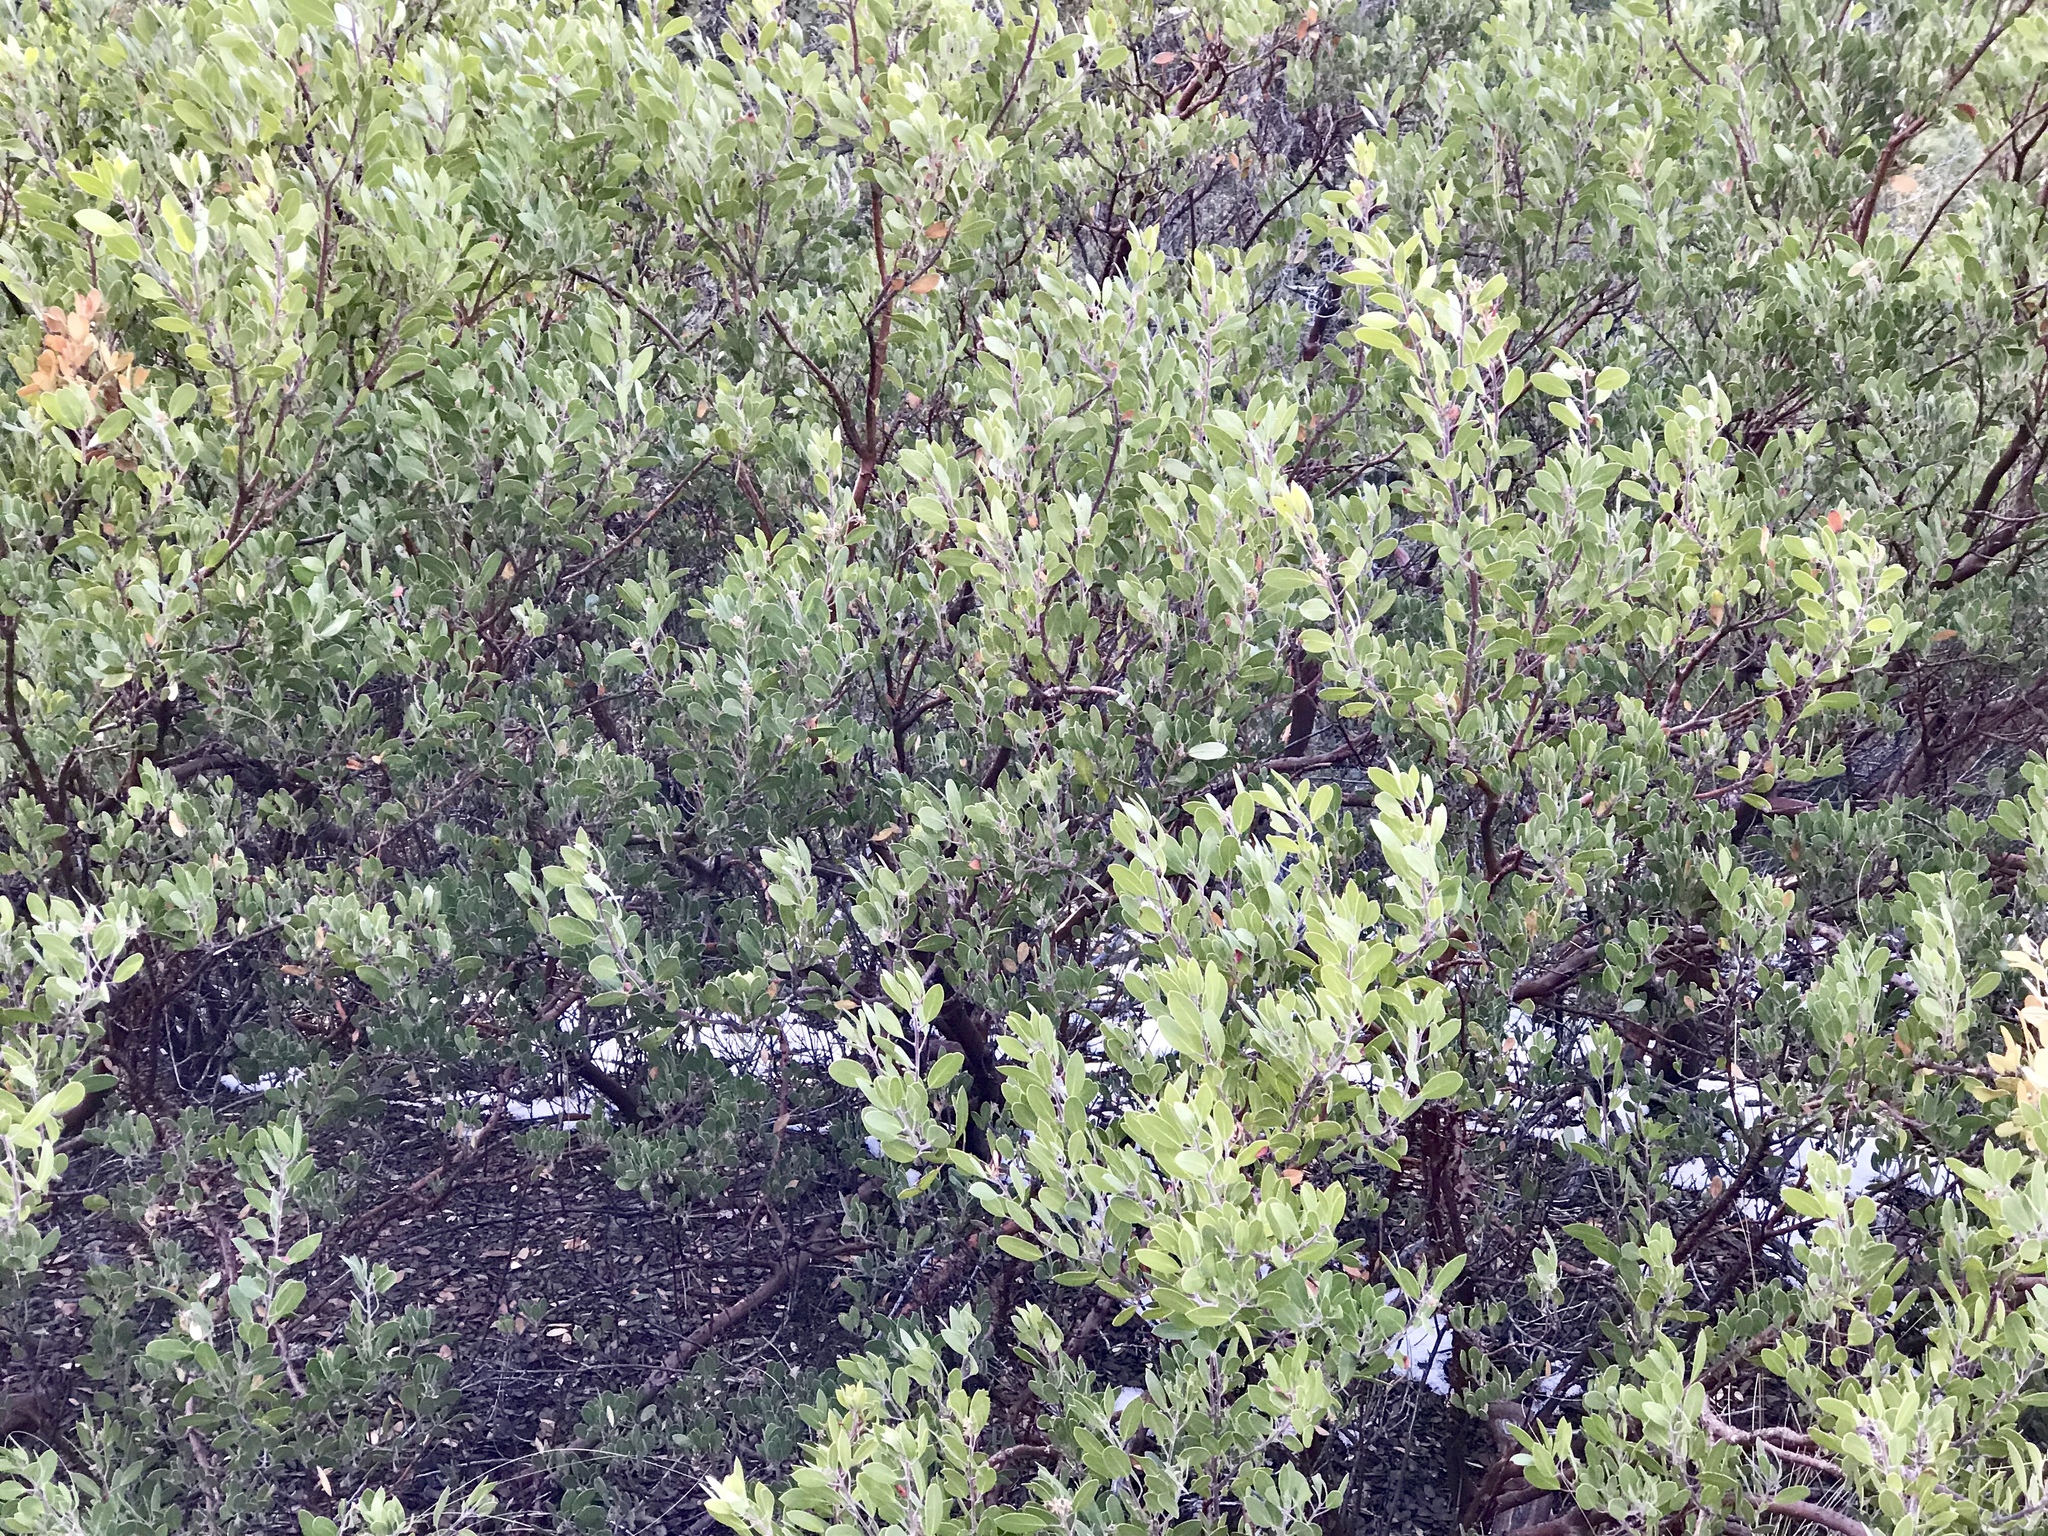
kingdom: Plantae
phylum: Tracheophyta
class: Magnoliopsida
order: Ericales
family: Ericaceae
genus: Arctostaphylos
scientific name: Arctostaphylos pungens
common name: Mexican manzanita
